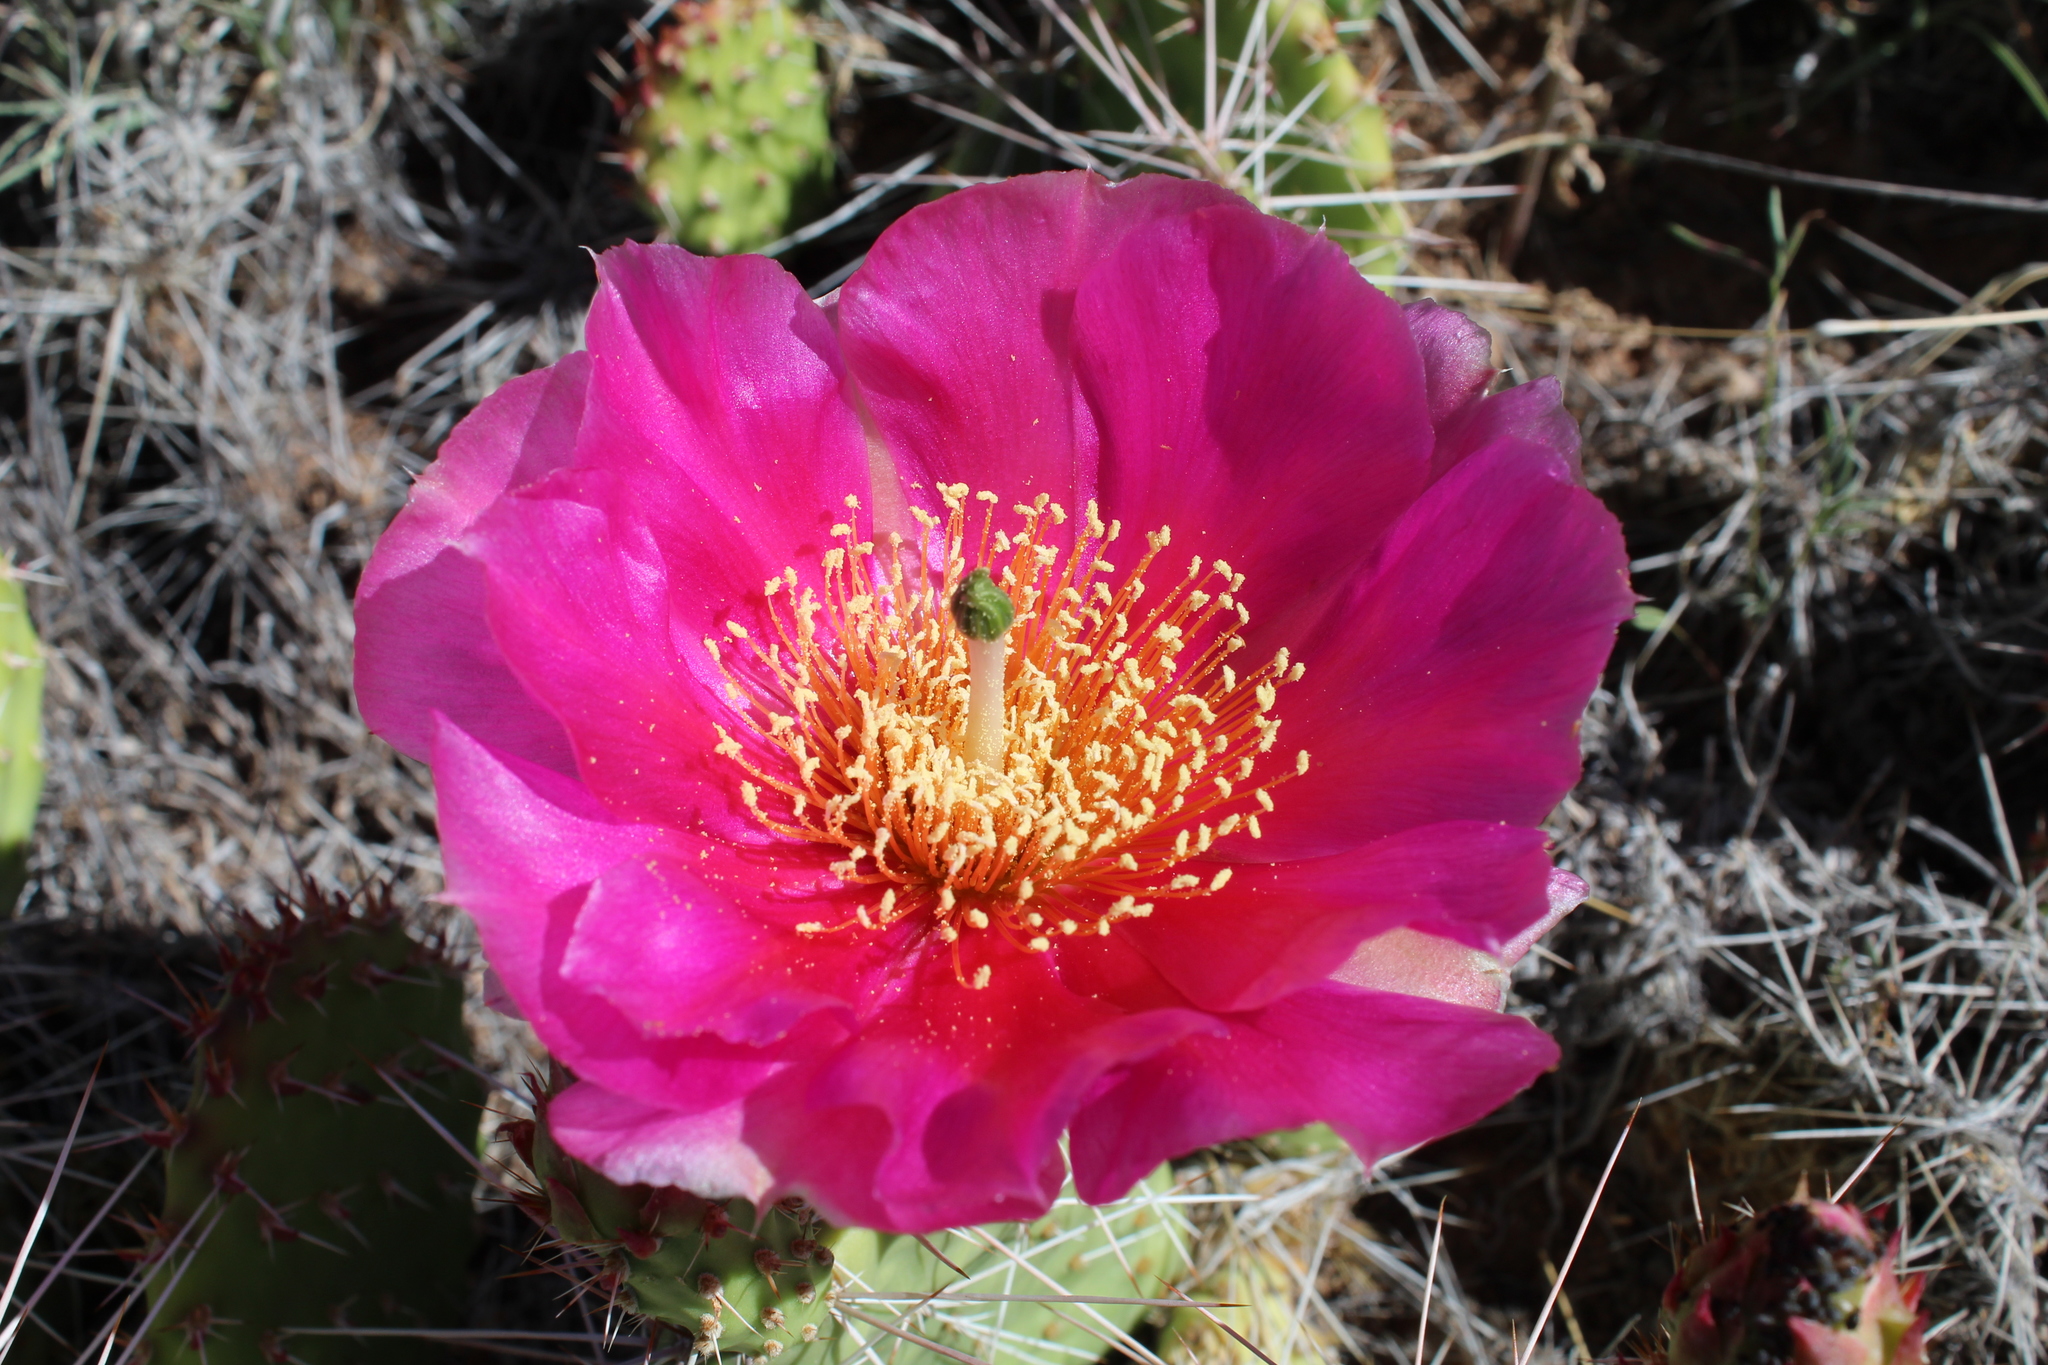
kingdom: Plantae
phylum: Tracheophyta
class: Magnoliopsida
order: Caryophyllales
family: Cactaceae
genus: Opuntia
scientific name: Opuntia polyacantha
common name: Plains prickly-pear
